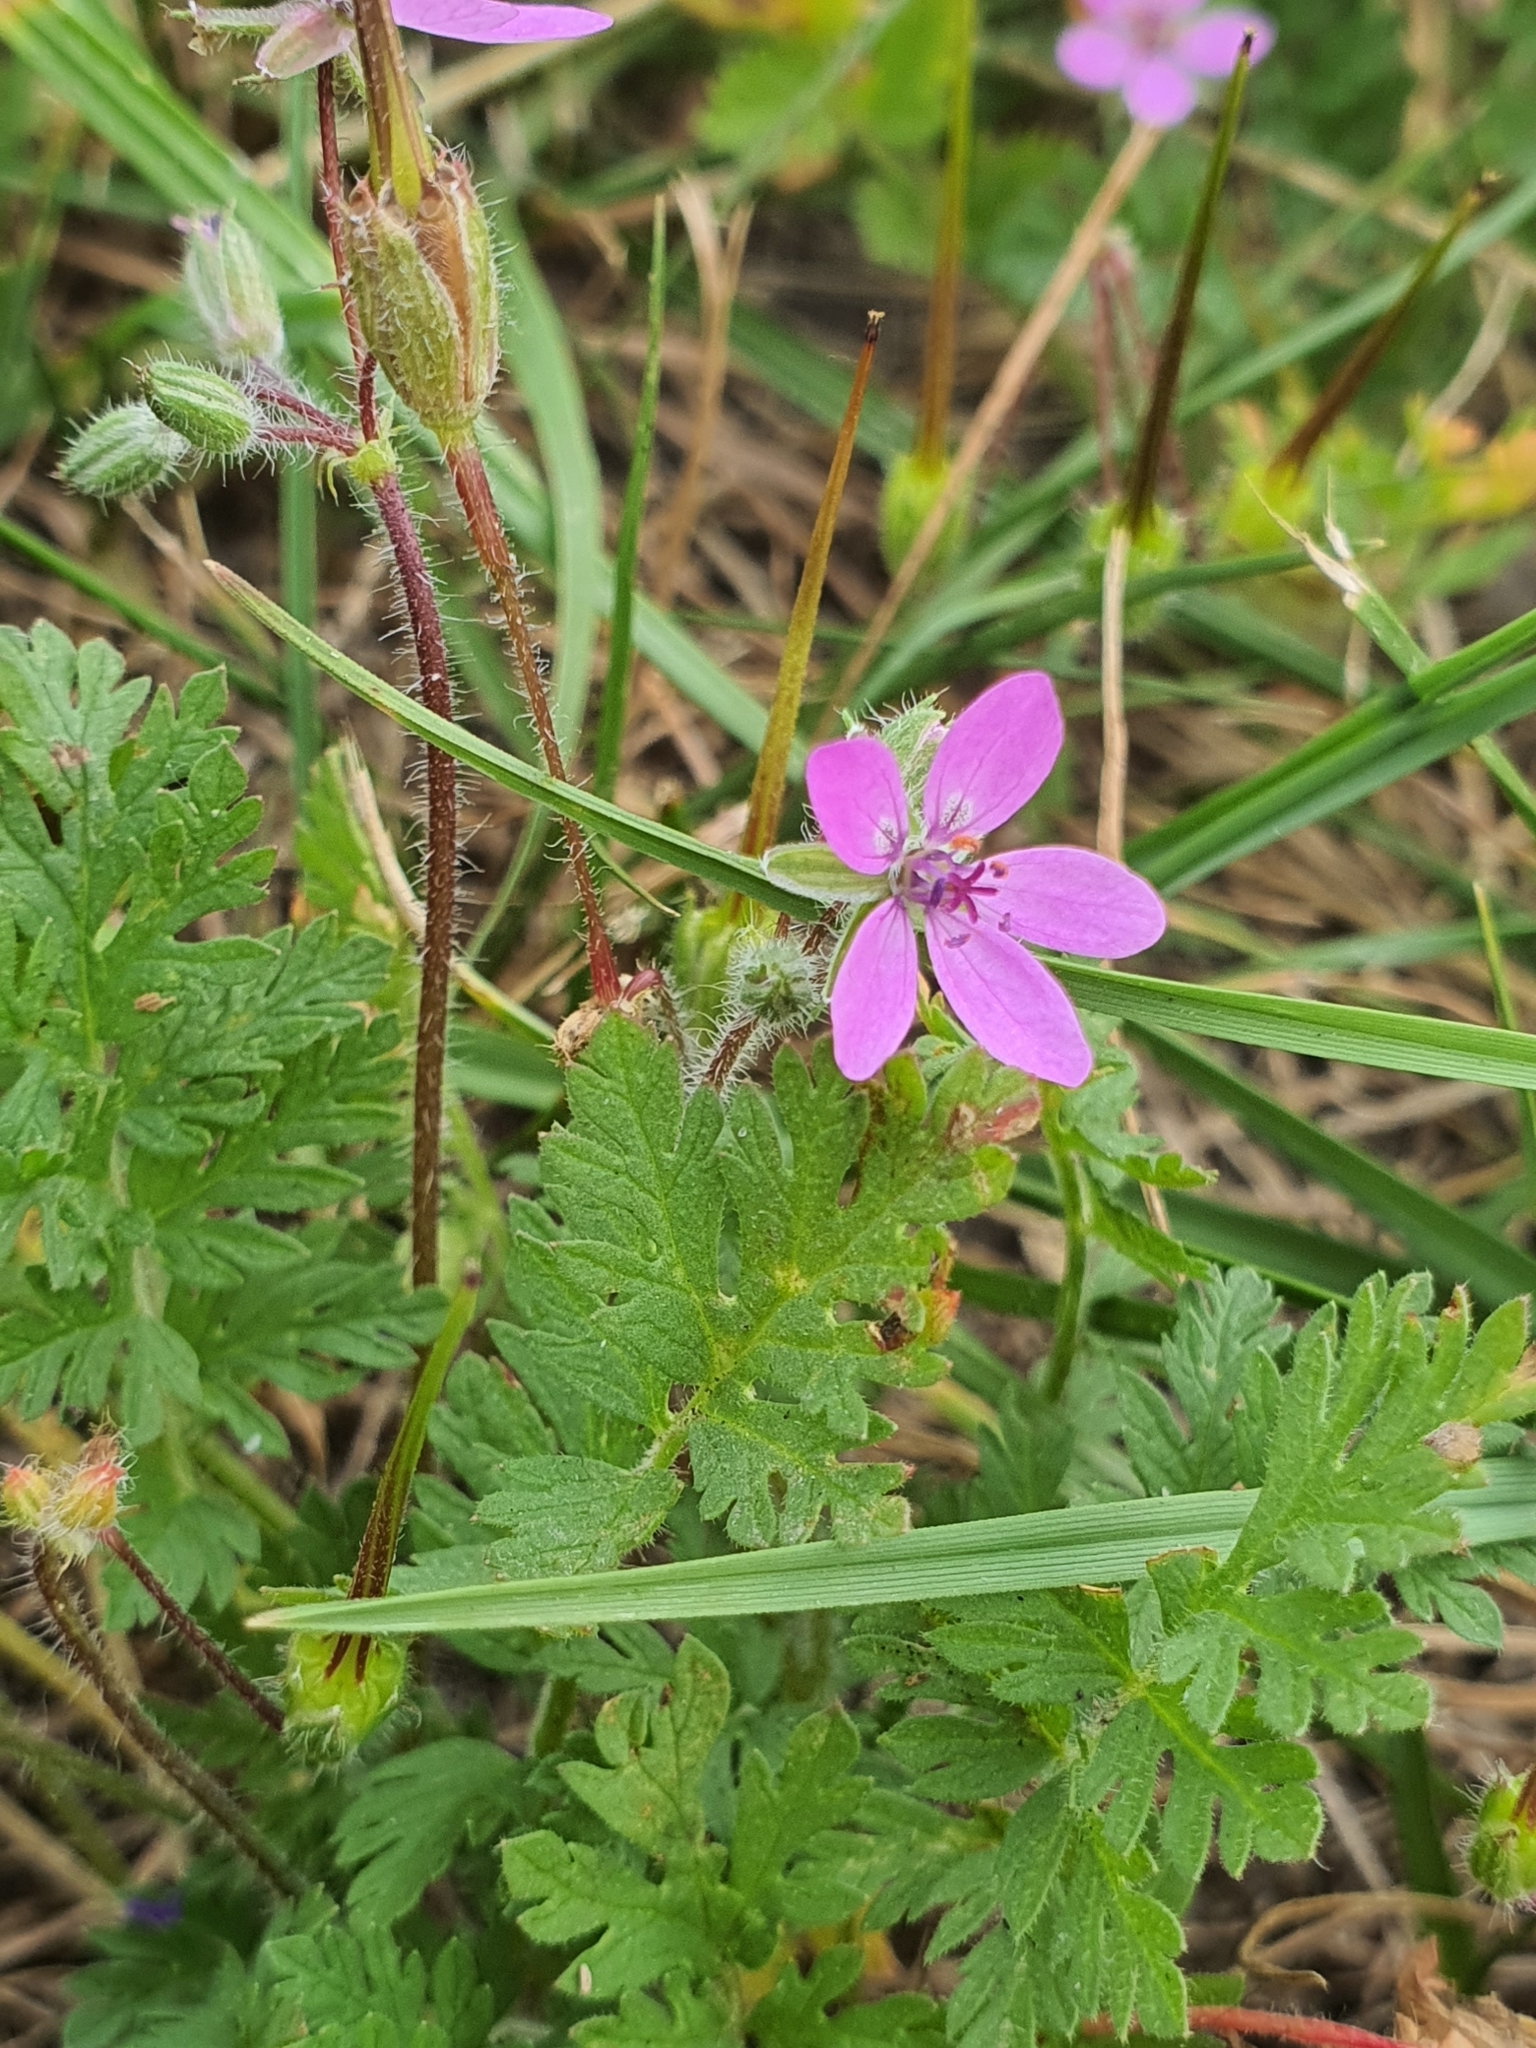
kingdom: Plantae
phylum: Tracheophyta
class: Magnoliopsida
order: Geraniales
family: Geraniaceae
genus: Erodium
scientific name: Erodium cicutarium
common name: Common stork's-bill
